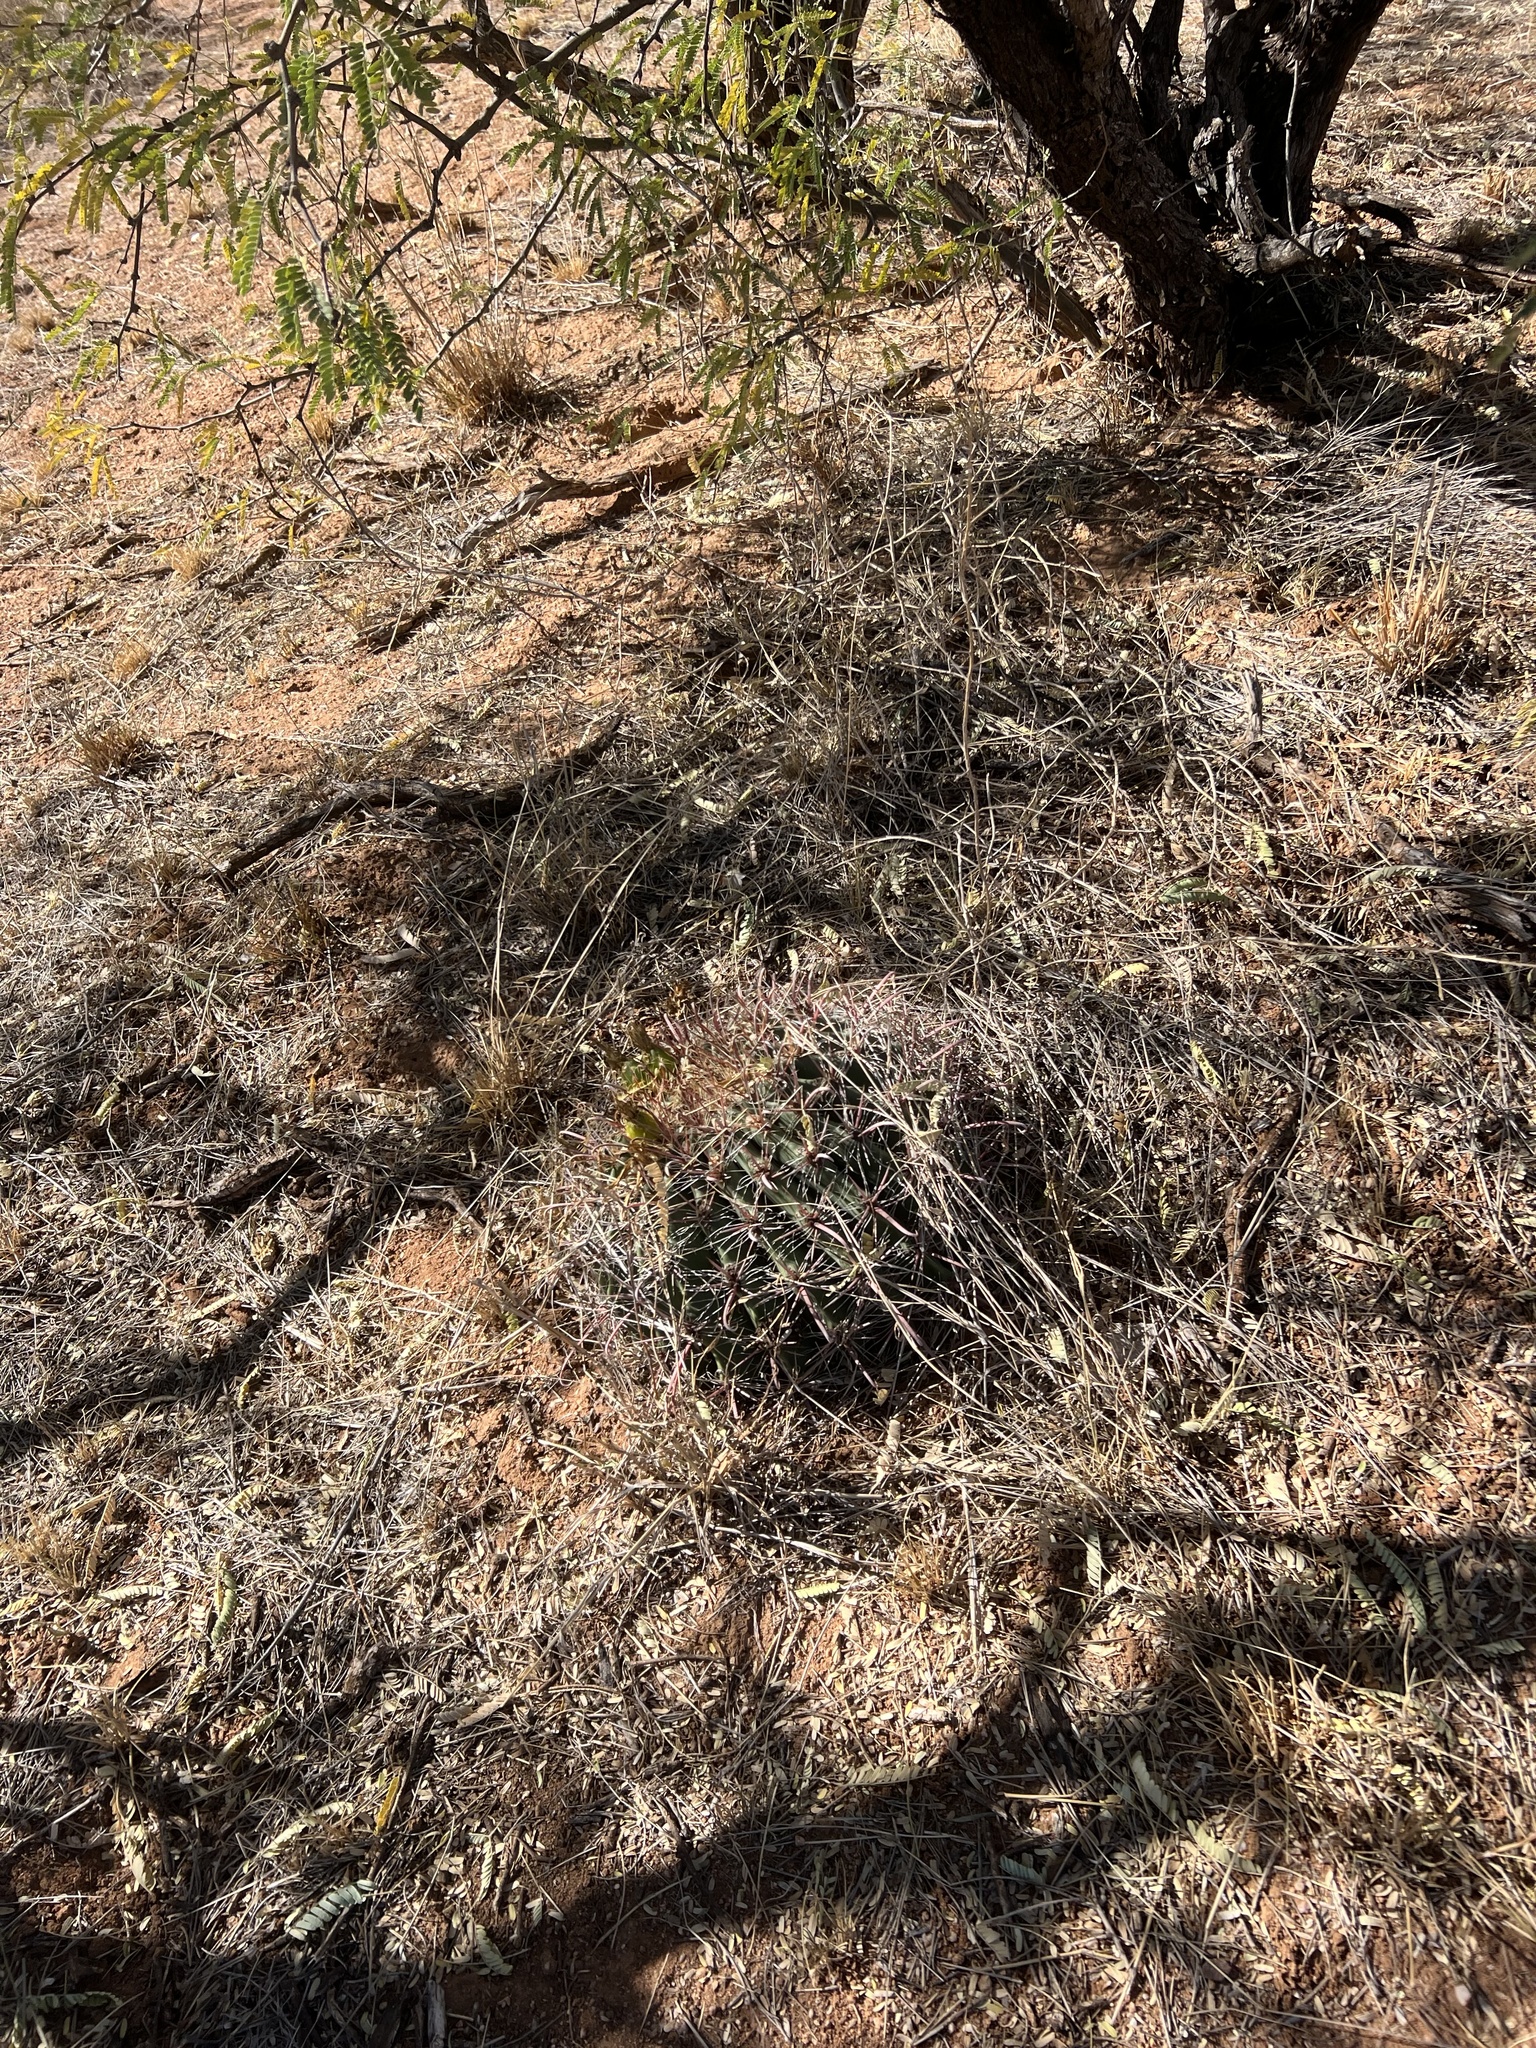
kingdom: Plantae
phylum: Tracheophyta
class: Magnoliopsida
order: Caryophyllales
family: Cactaceae
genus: Ferocactus
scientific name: Ferocactus wislizeni
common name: Candy barrel cactus
